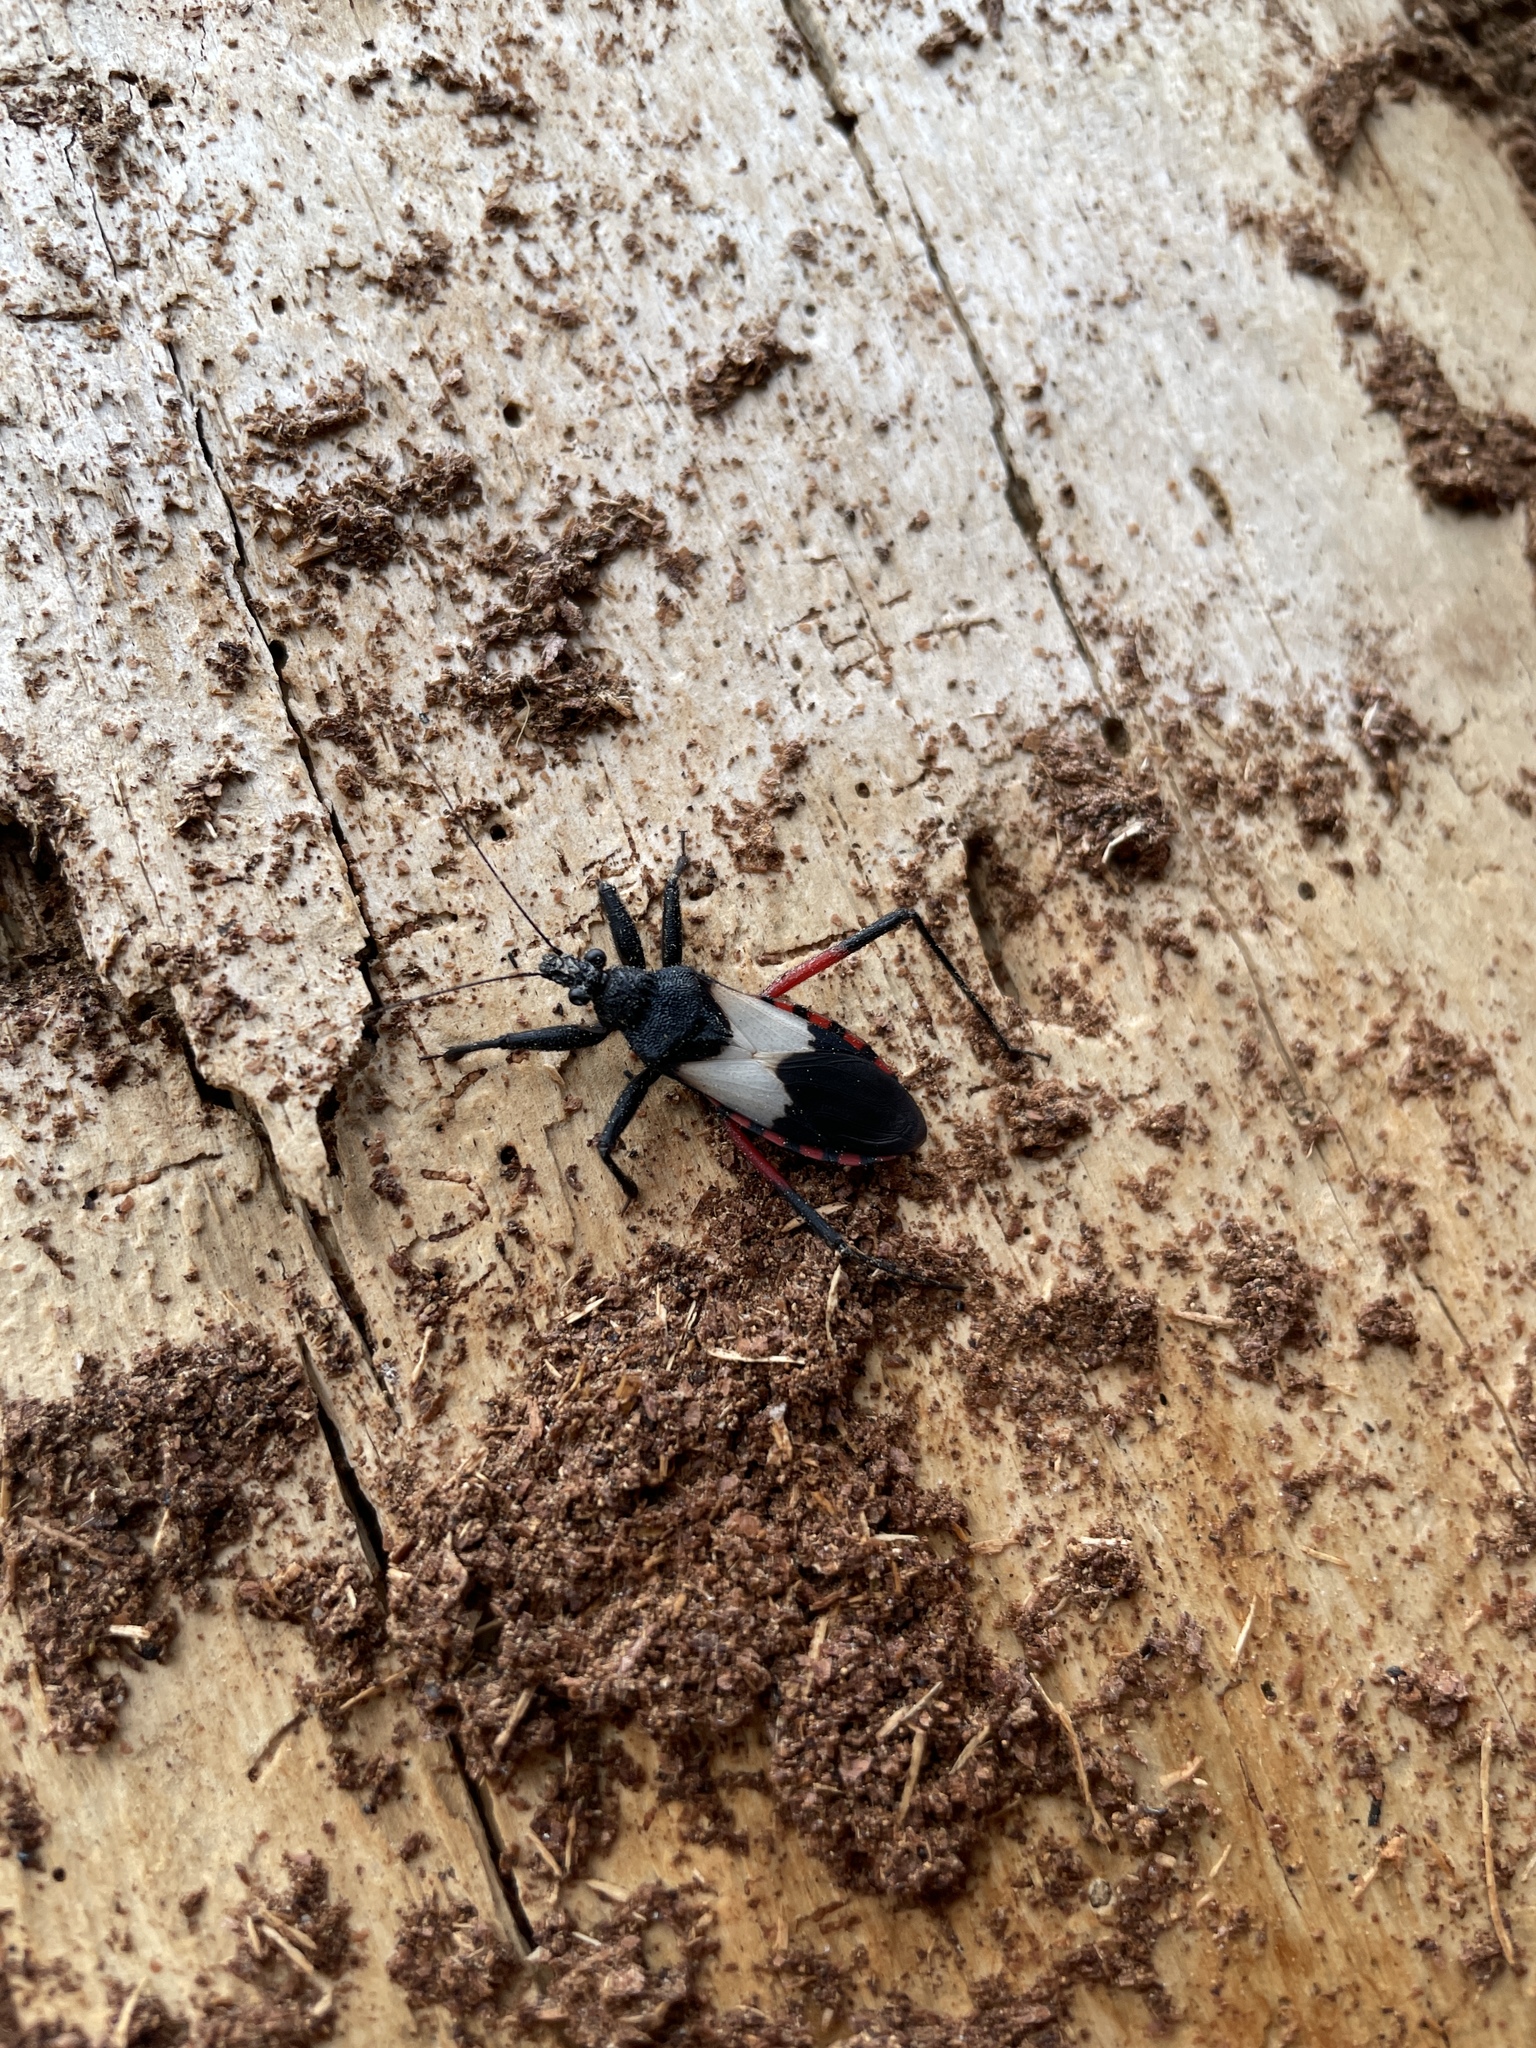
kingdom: Animalia
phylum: Arthropoda
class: Insecta
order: Hemiptera
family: Reduviidae
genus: Microtomus
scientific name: Microtomus purcis
